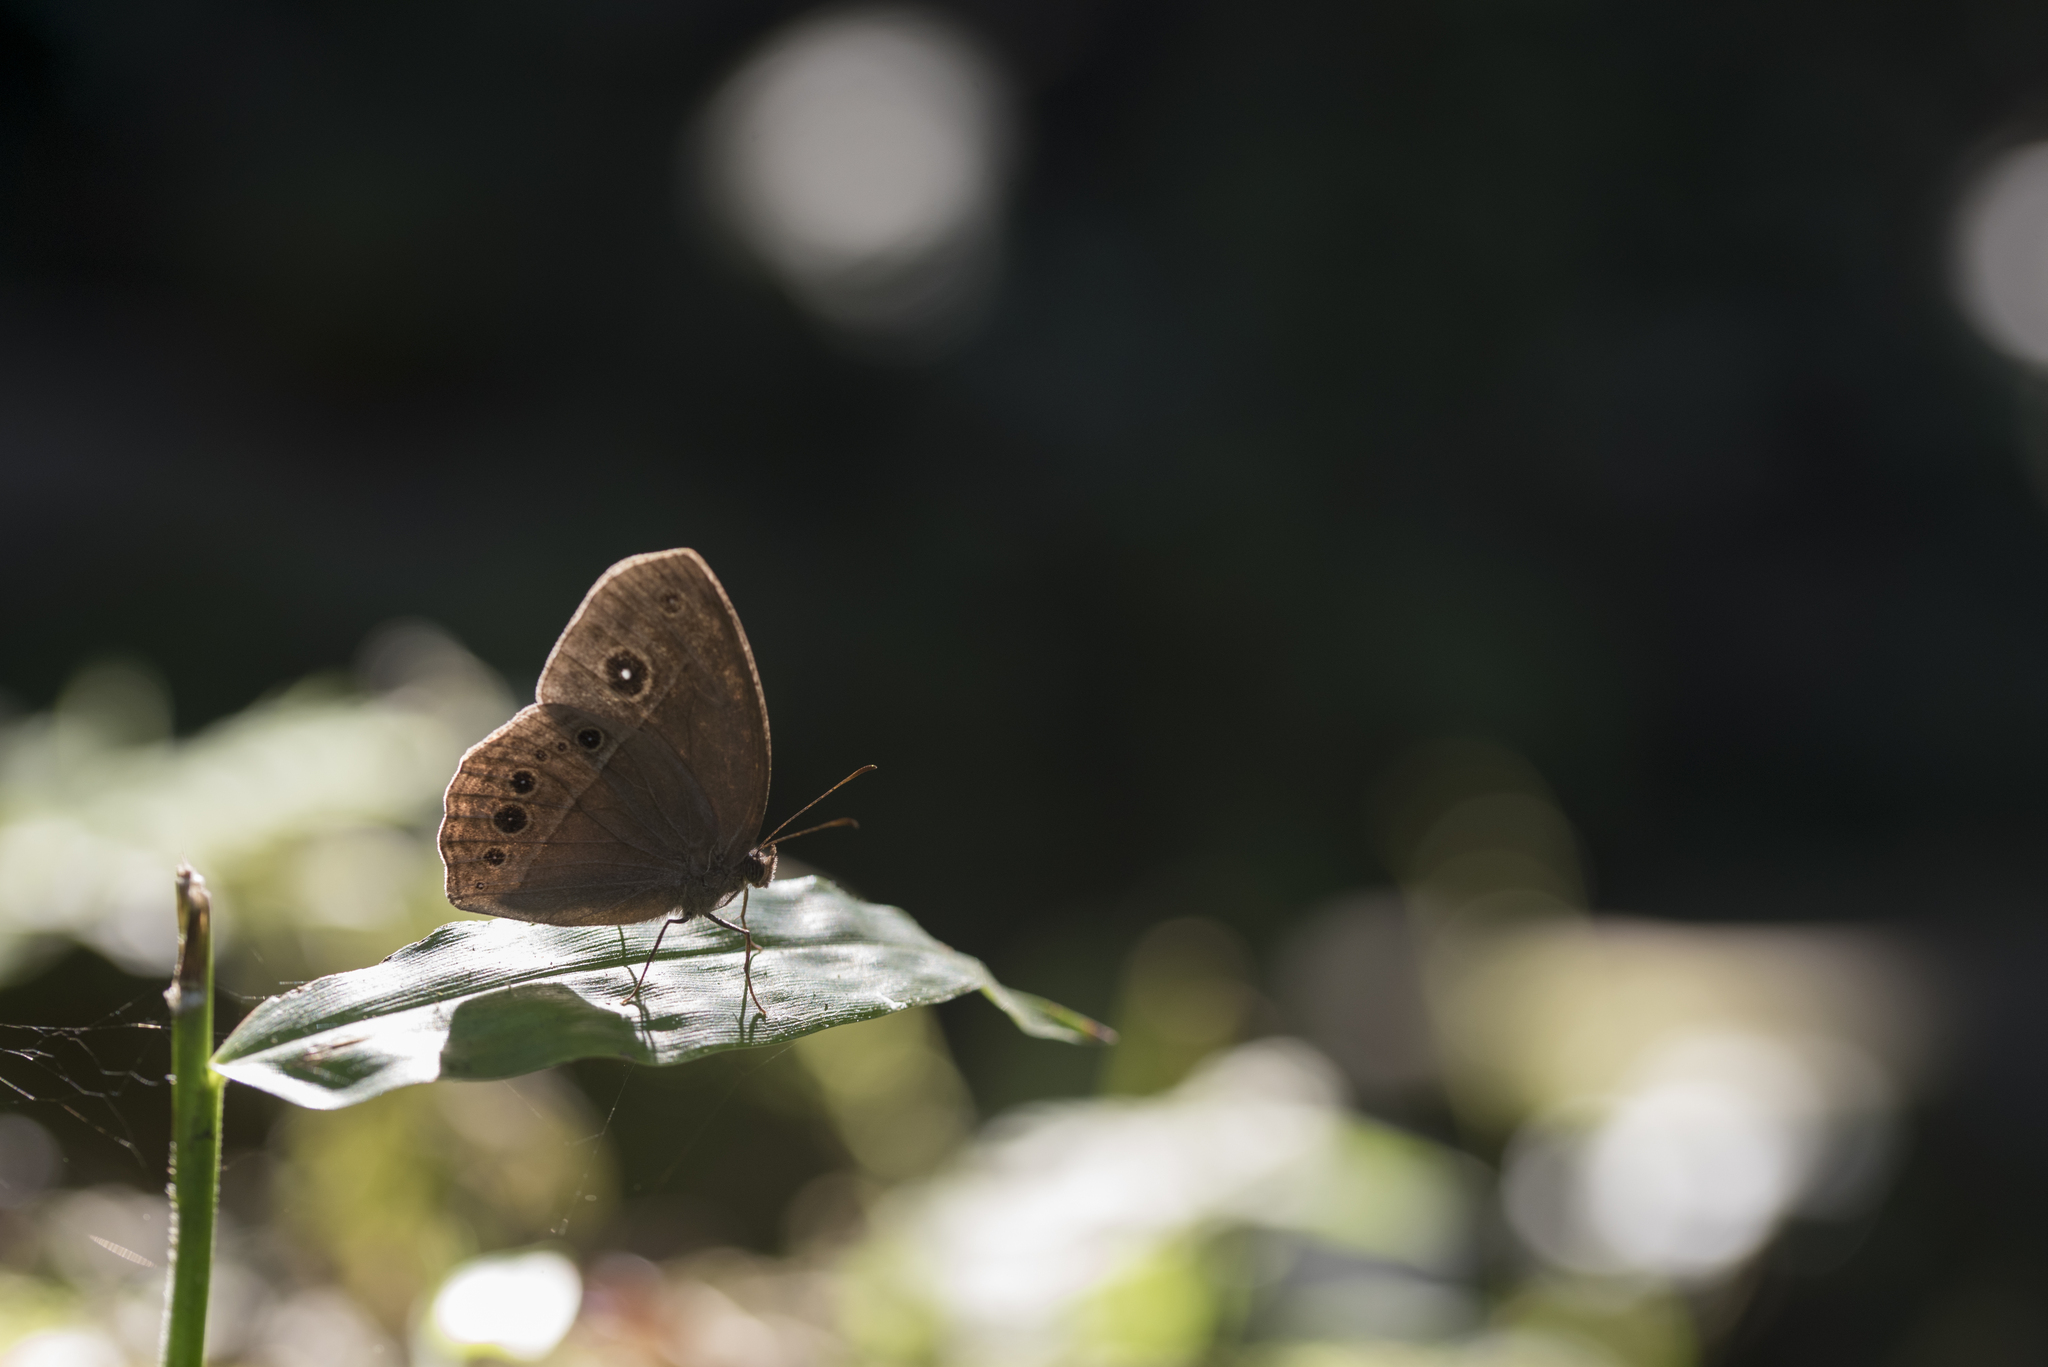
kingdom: Animalia
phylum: Arthropoda
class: Insecta
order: Lepidoptera
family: Nymphalidae
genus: Mycalesis
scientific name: Mycalesis horsfieldii
